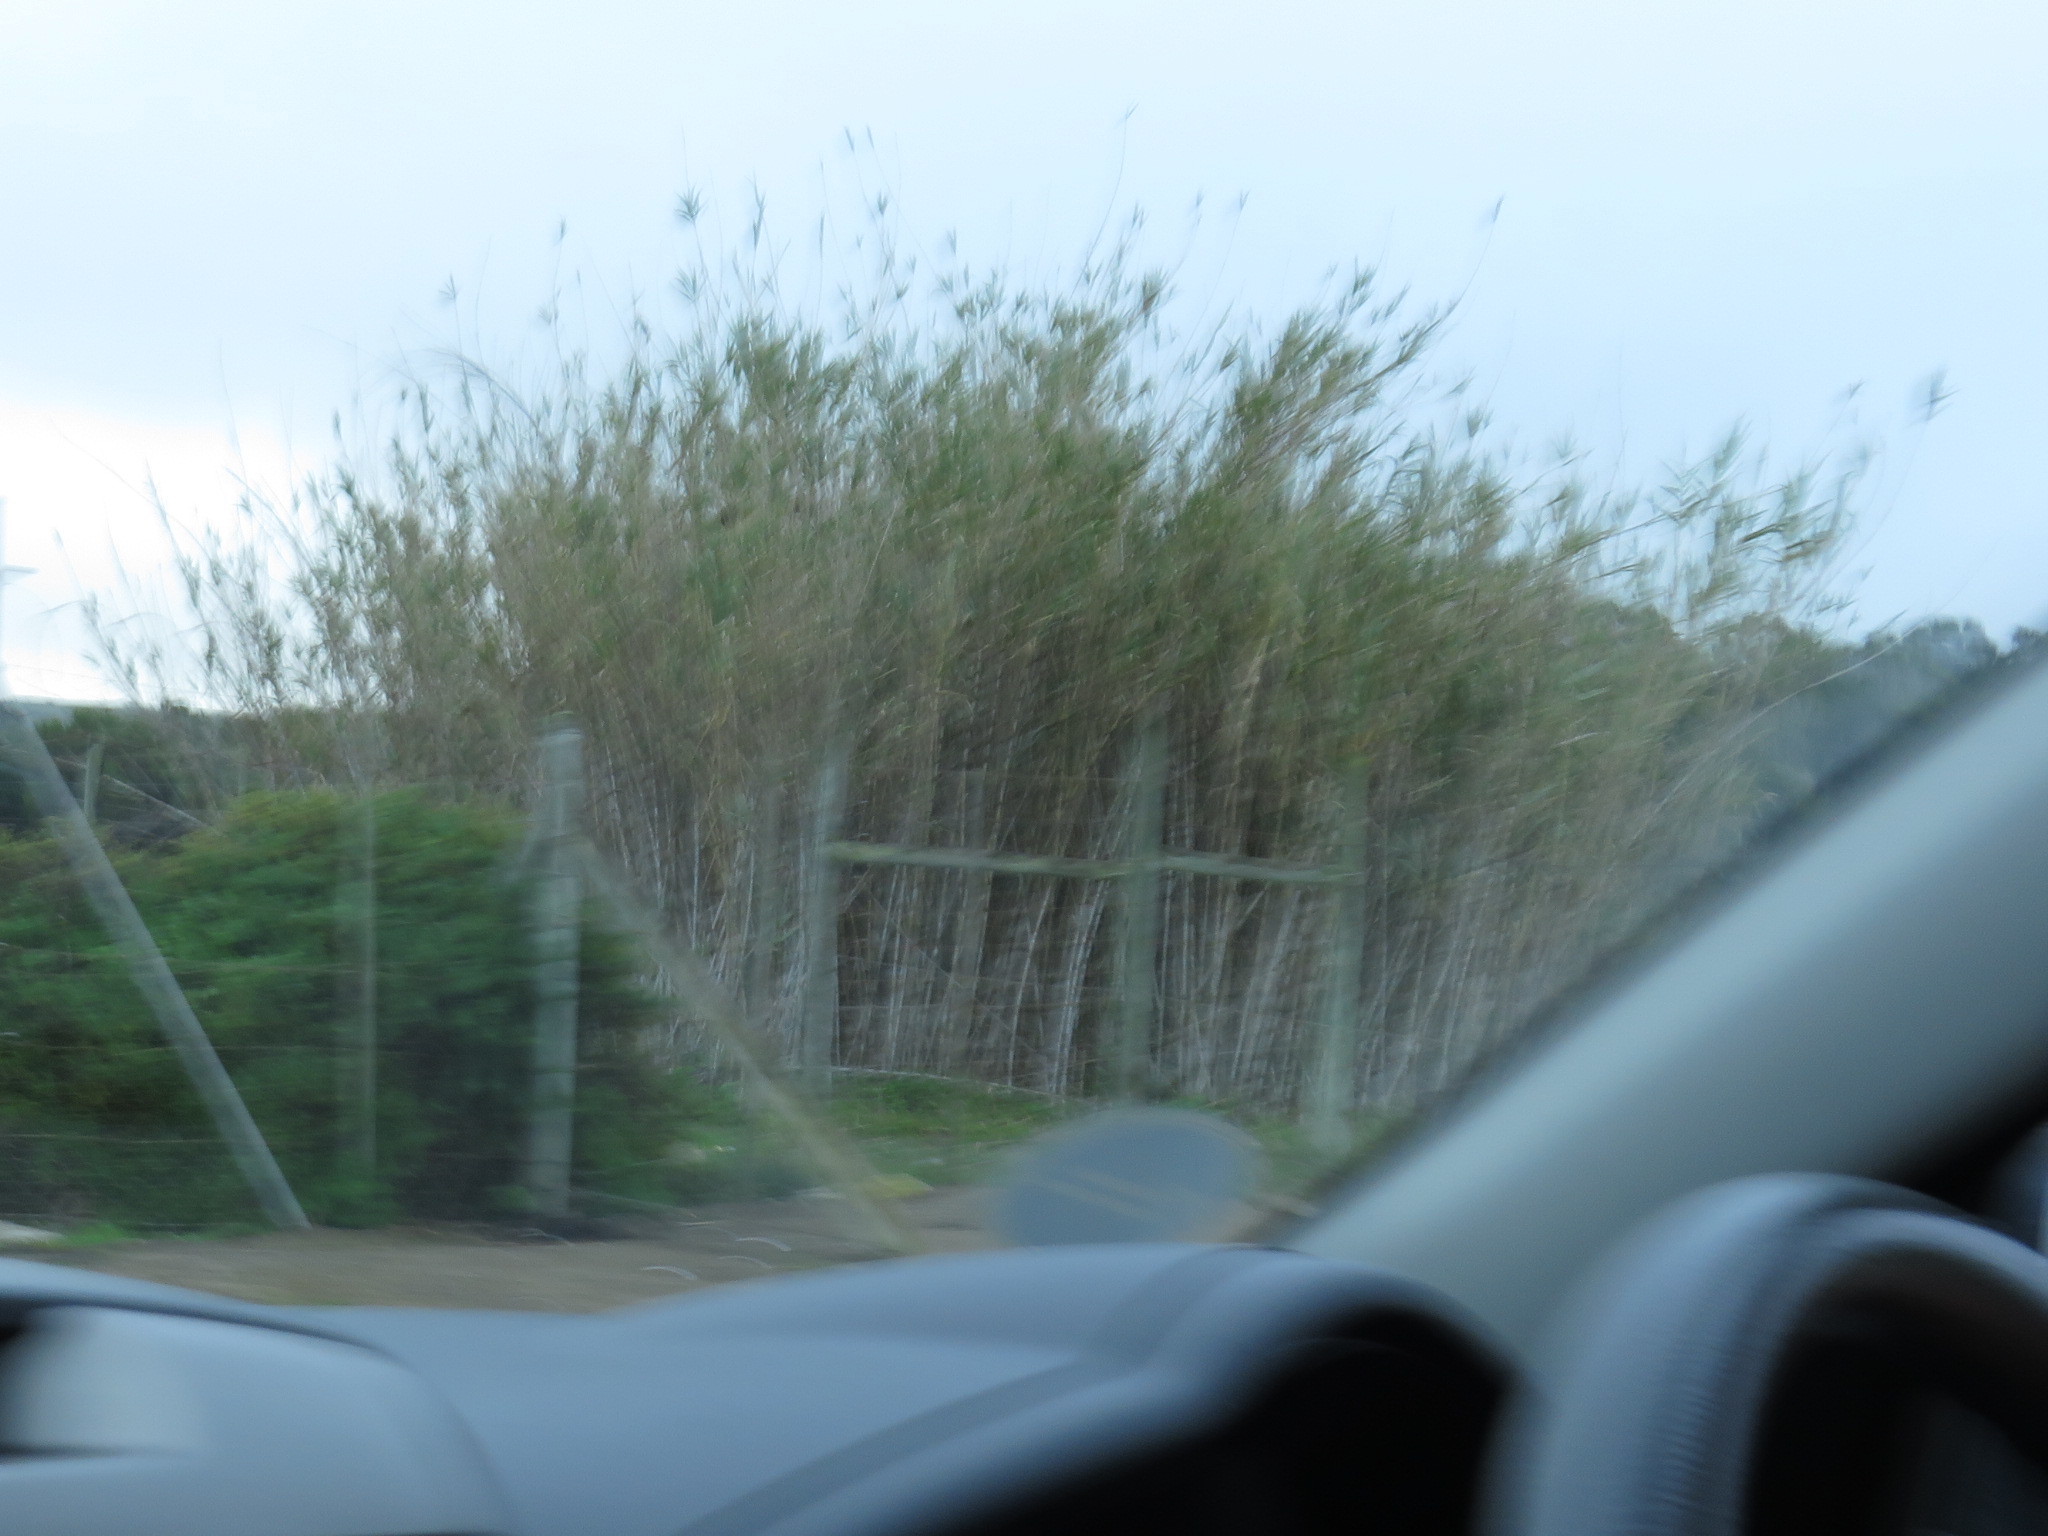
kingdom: Plantae
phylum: Tracheophyta
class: Liliopsida
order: Poales
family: Poaceae
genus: Arundo
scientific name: Arundo donax
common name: Giant reed
